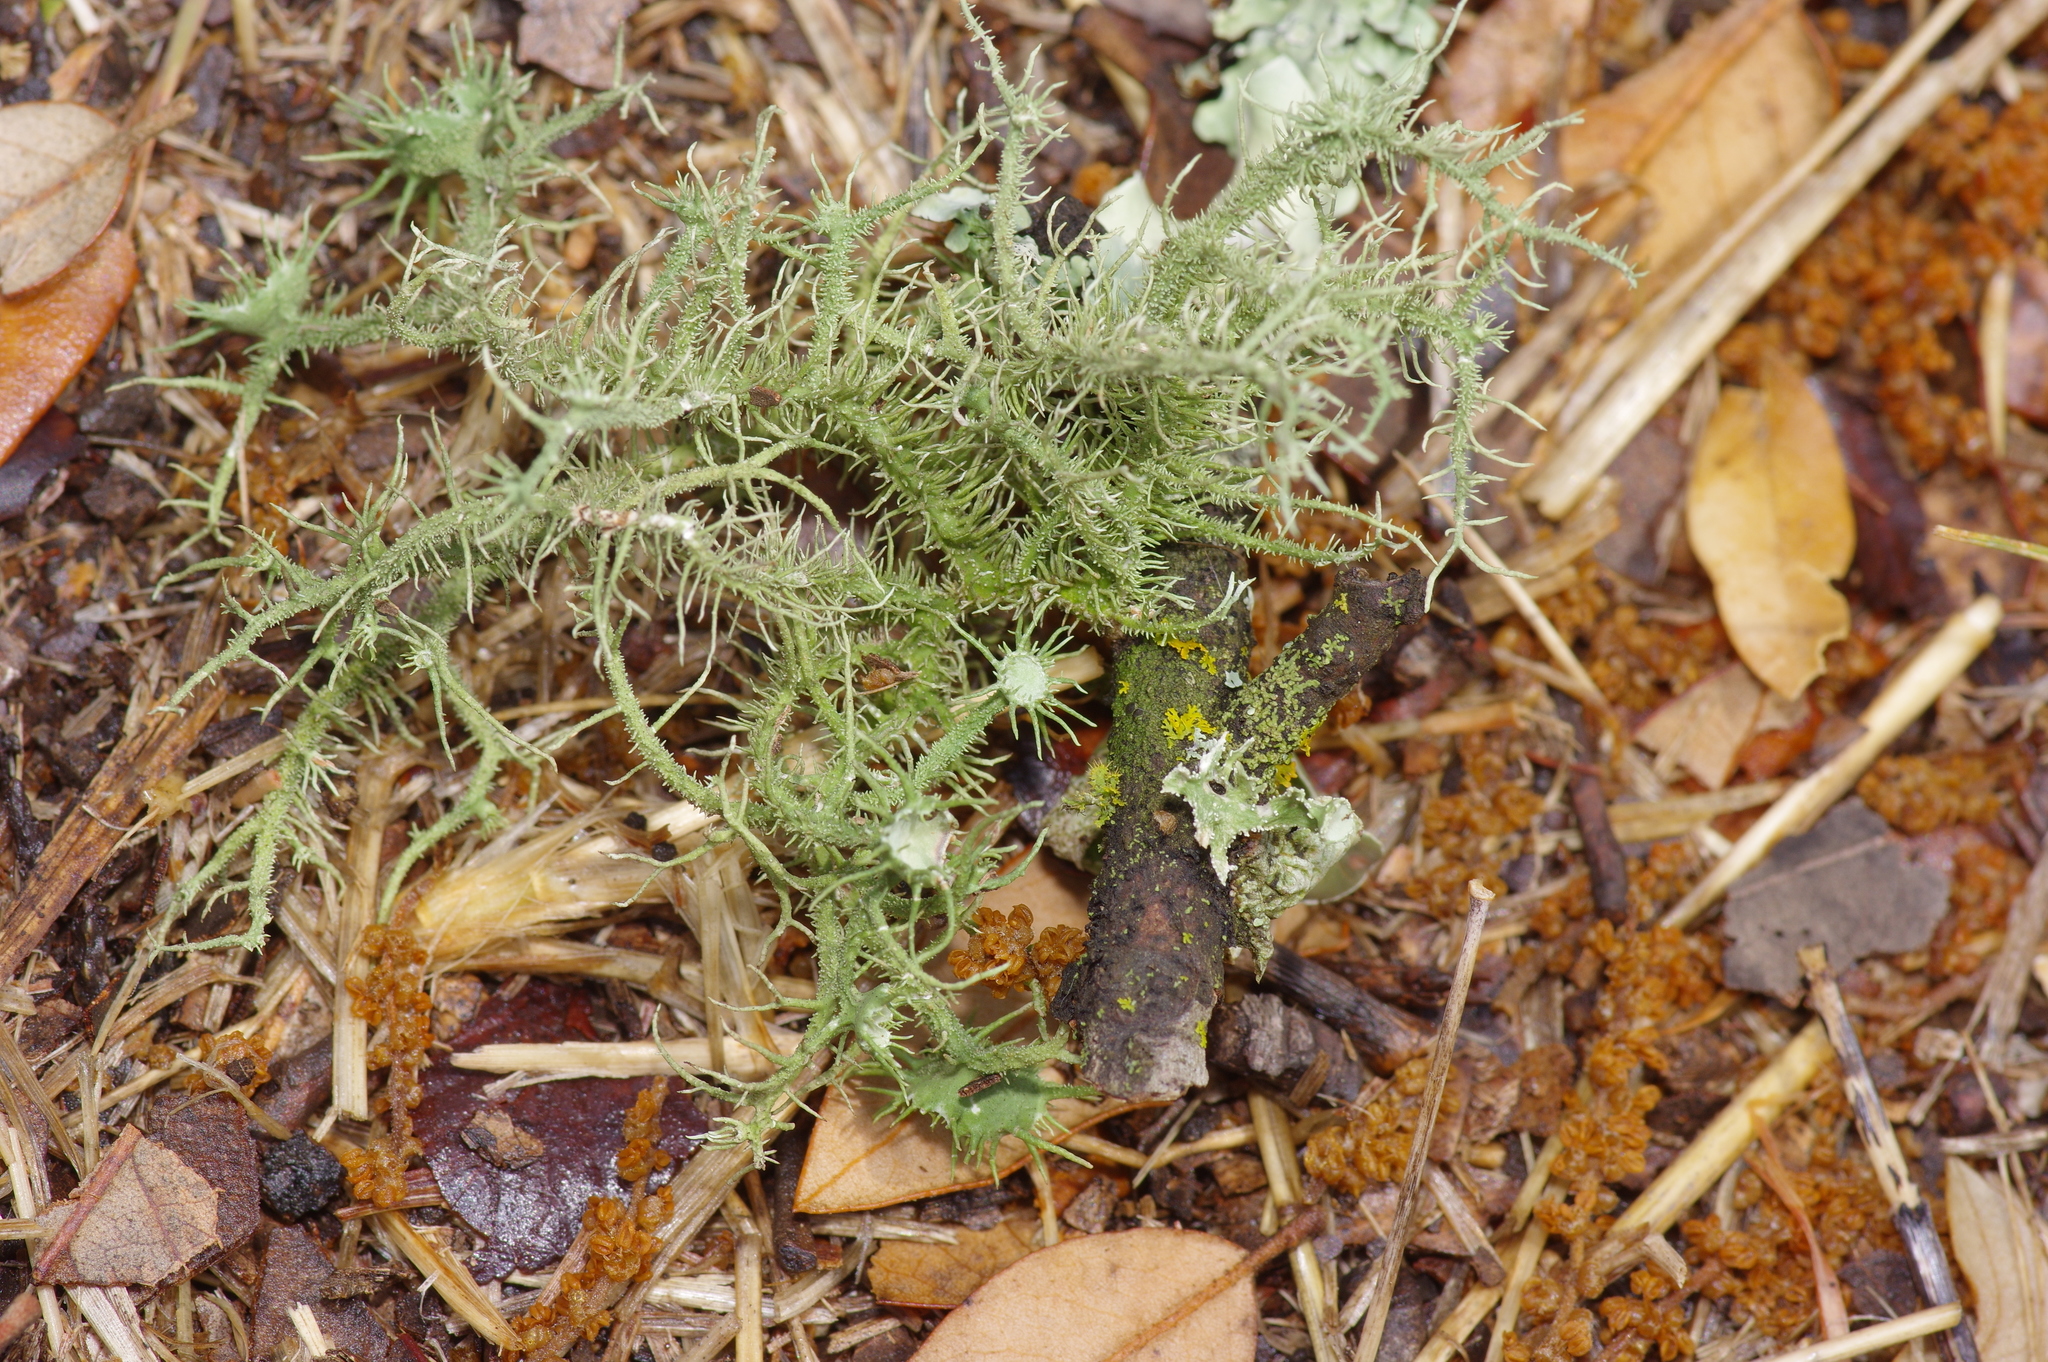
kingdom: Fungi
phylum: Ascomycota
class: Lecanoromycetes
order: Lecanorales
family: Parmeliaceae
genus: Usnea
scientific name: Usnea strigosa
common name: Bushy beard lichen
